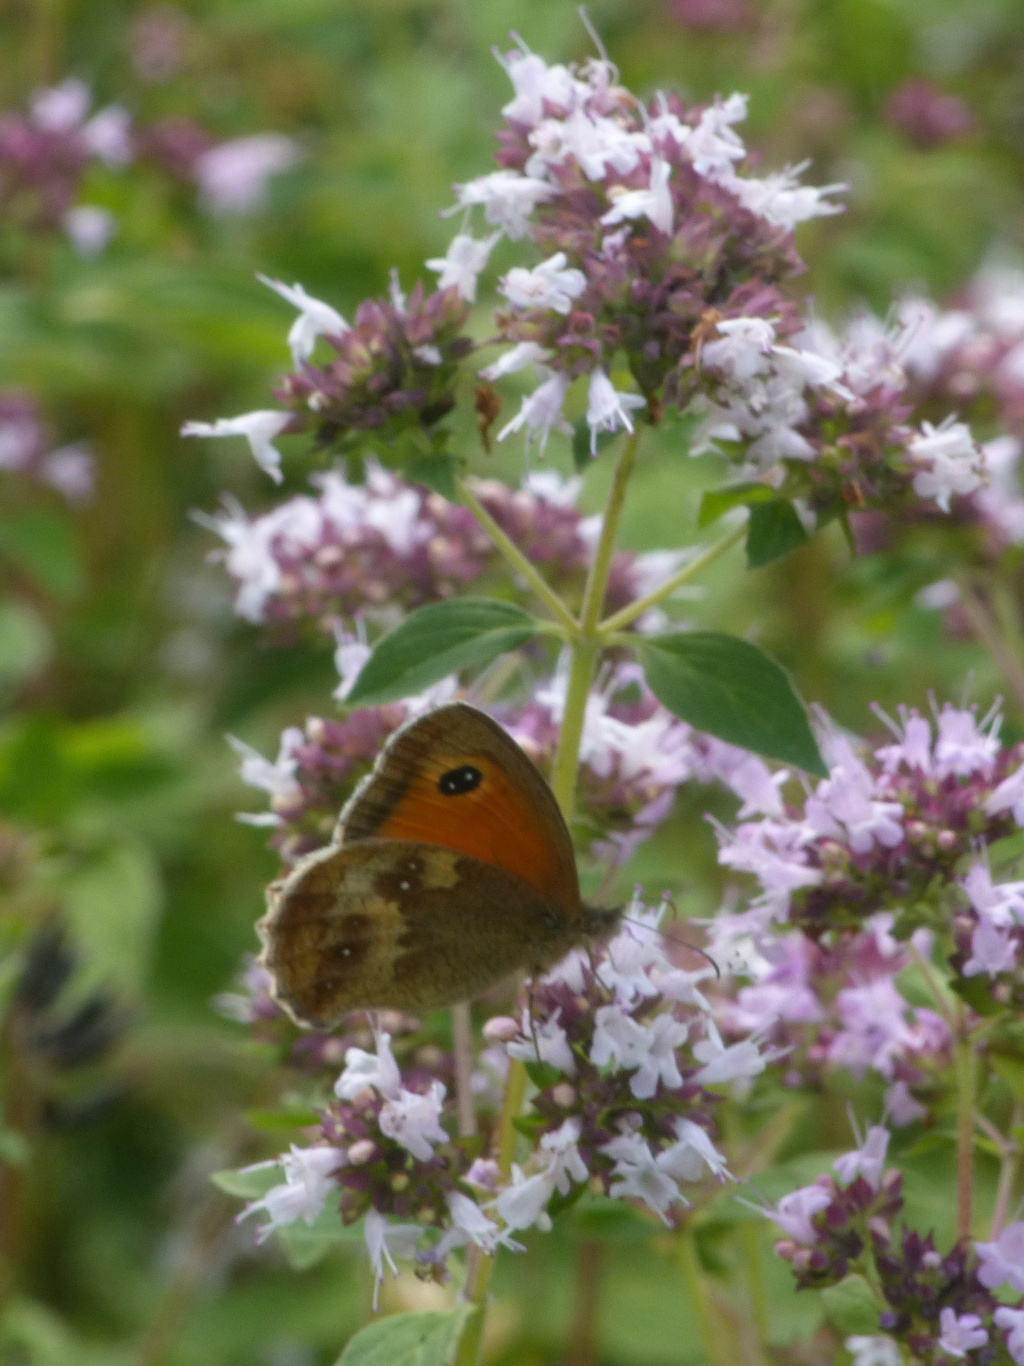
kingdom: Animalia
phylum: Arthropoda
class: Insecta
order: Lepidoptera
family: Nymphalidae
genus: Pyronia
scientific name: Pyronia tithonus
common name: Gatekeeper
